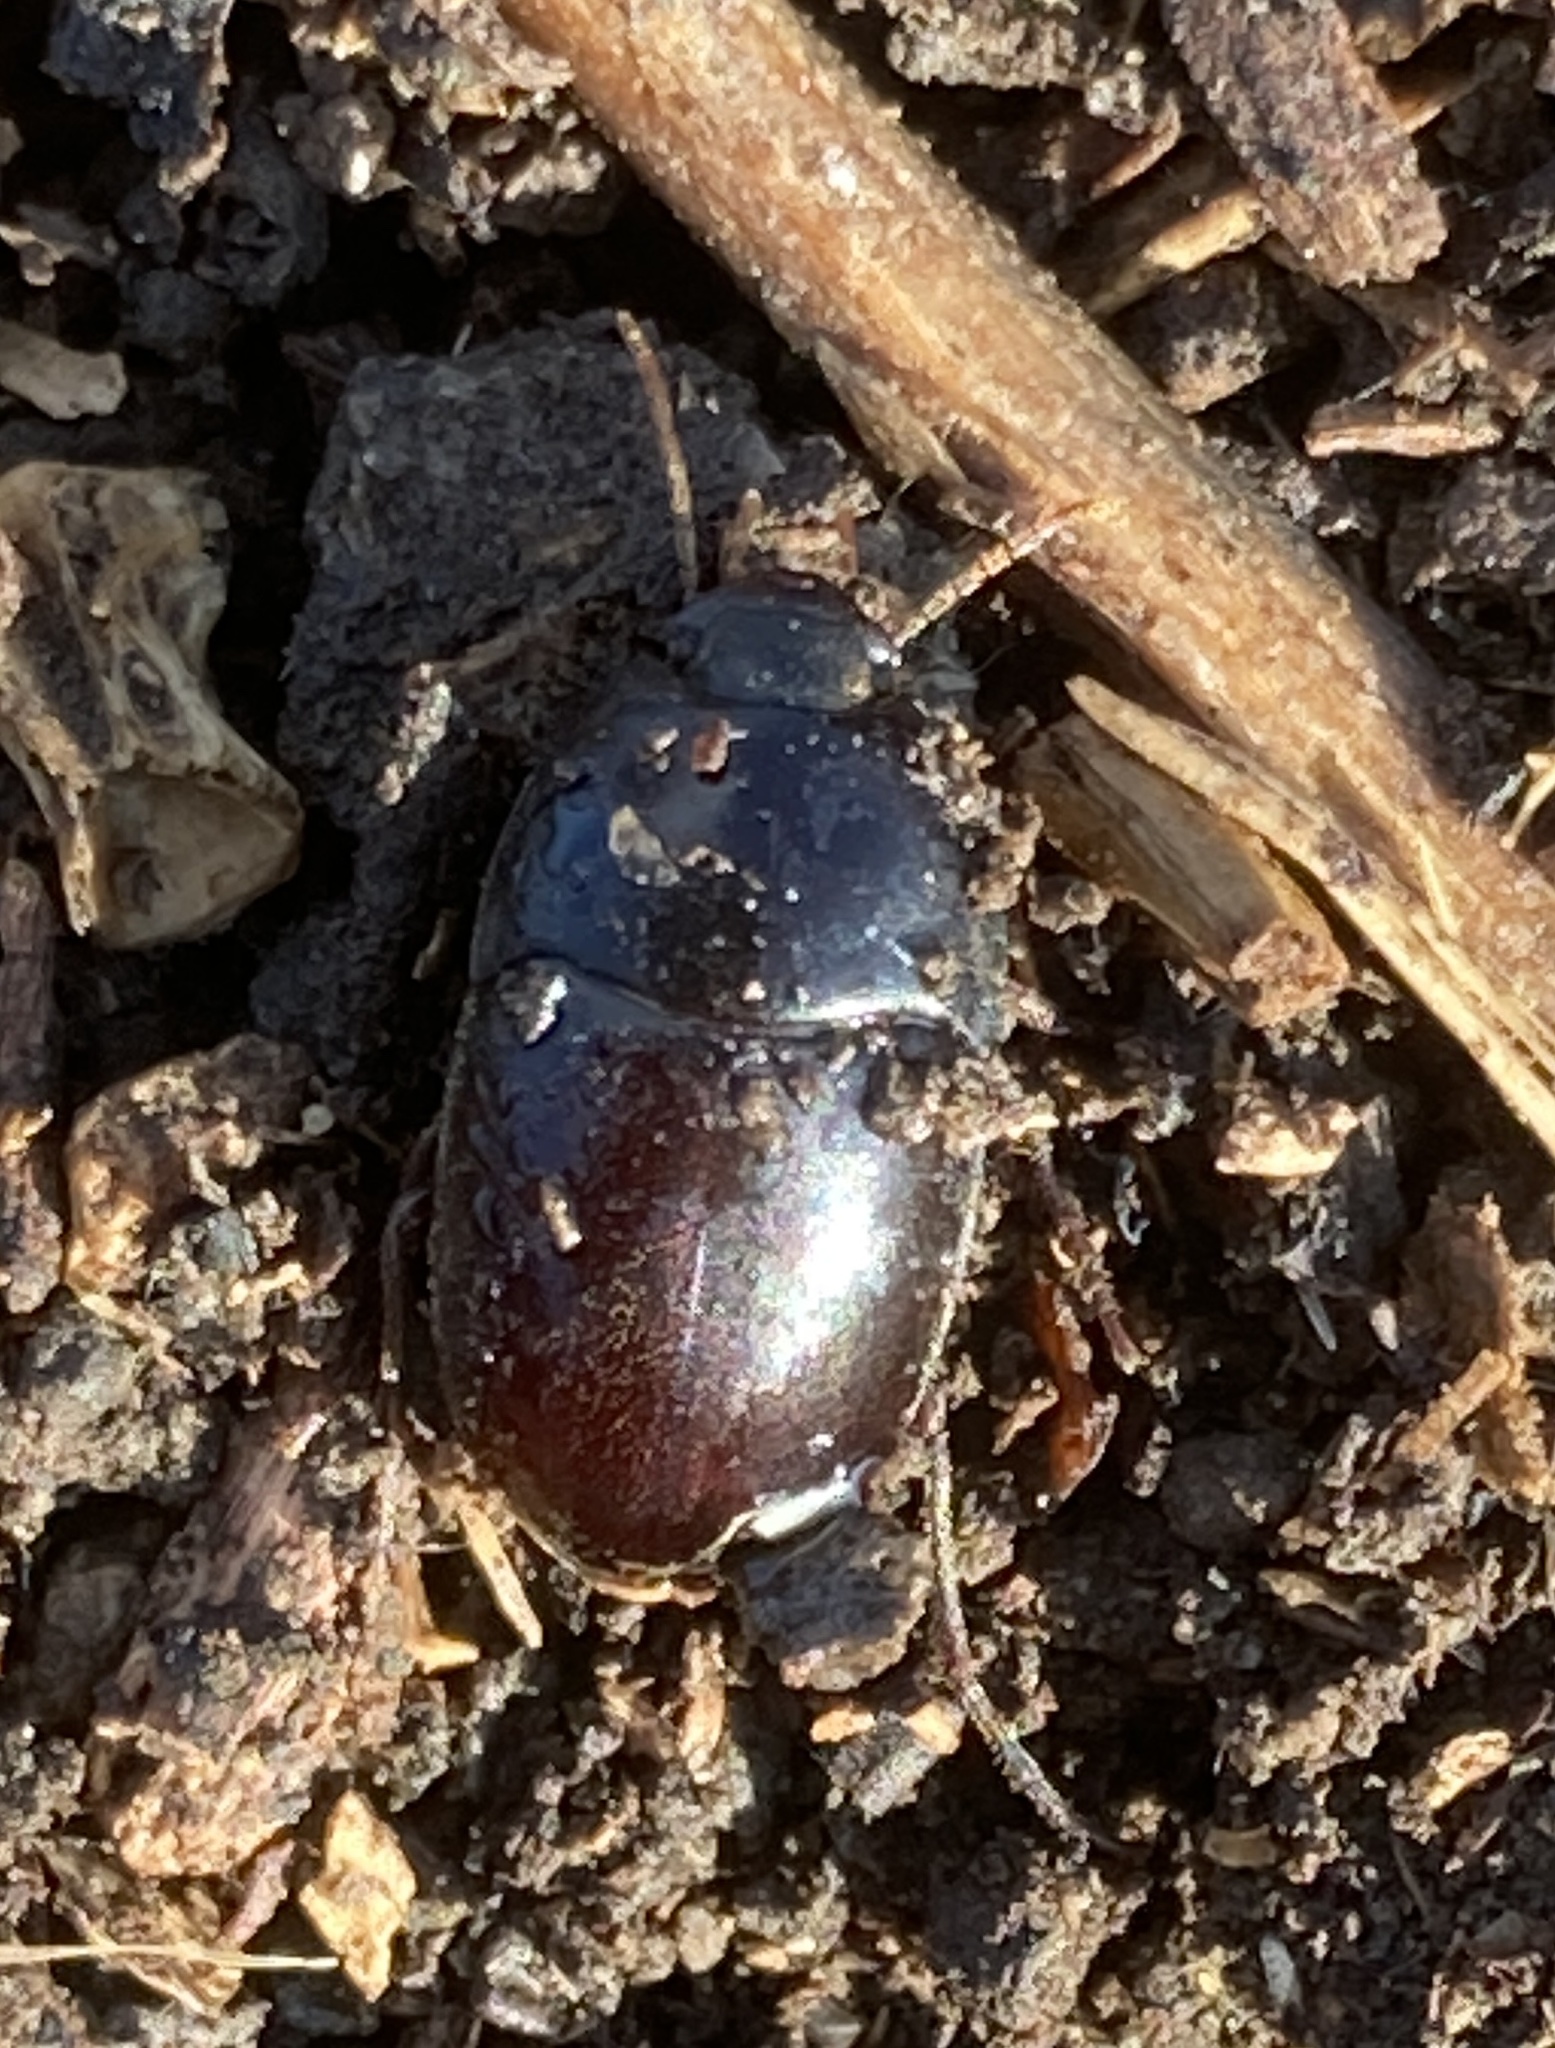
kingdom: Animalia
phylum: Arthropoda
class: Insecta
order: Coleoptera
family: Tenebrionidae
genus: Coniontis
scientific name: Coniontis
